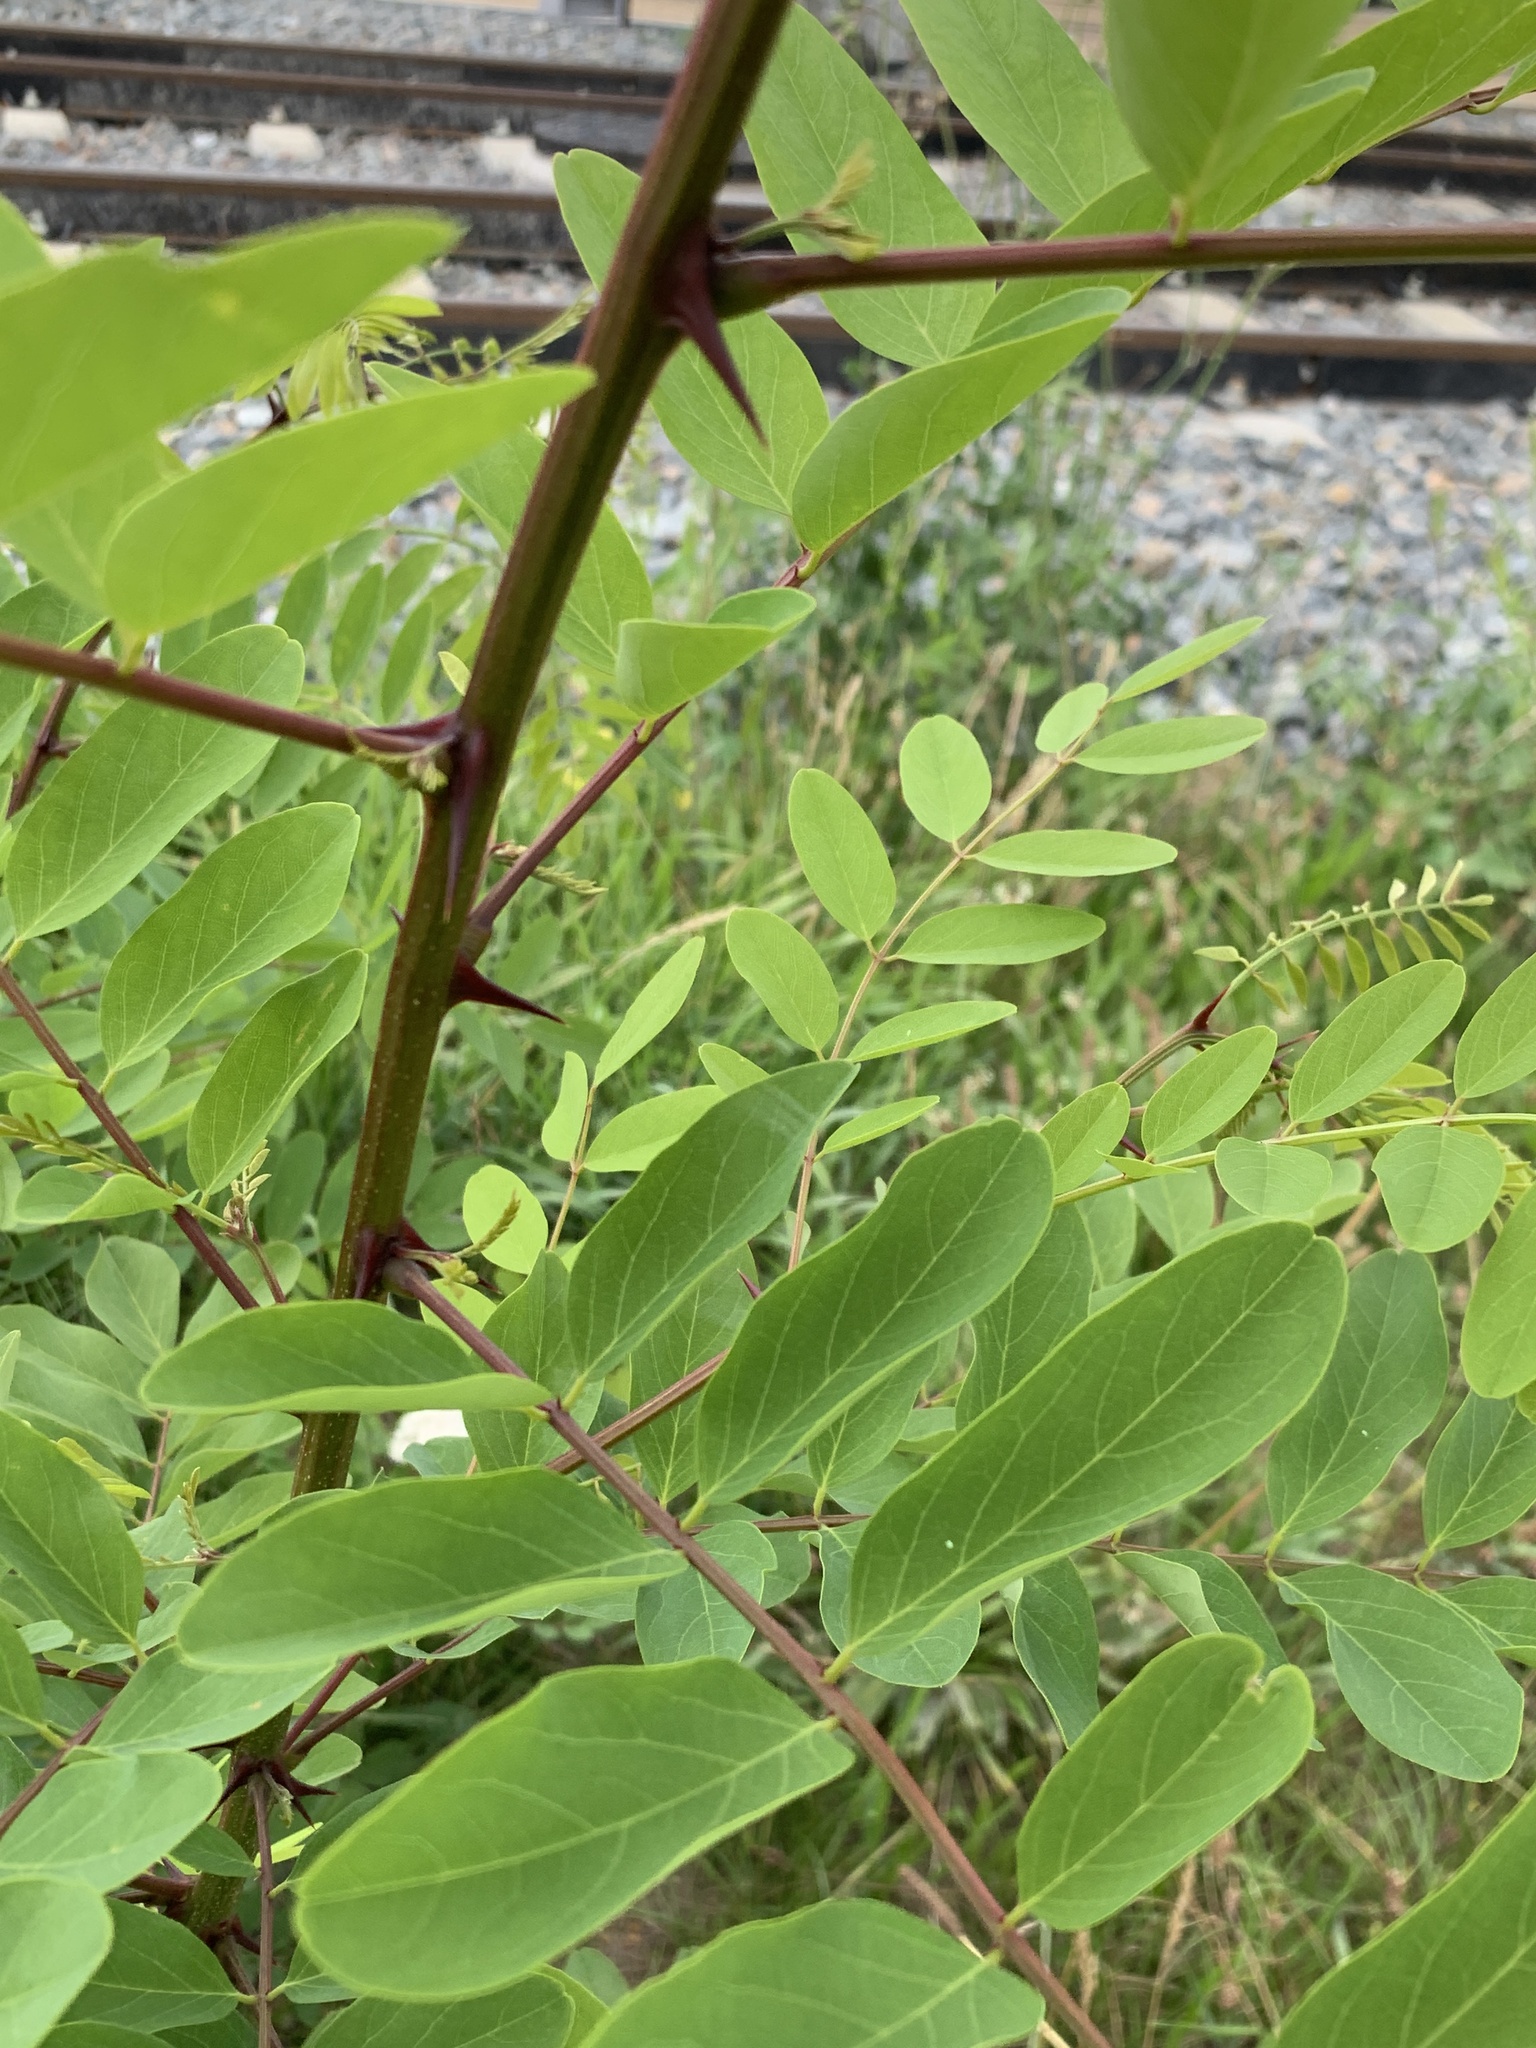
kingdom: Plantae
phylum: Tracheophyta
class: Magnoliopsida
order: Fabales
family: Fabaceae
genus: Robinia
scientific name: Robinia pseudoacacia
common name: Black locust
